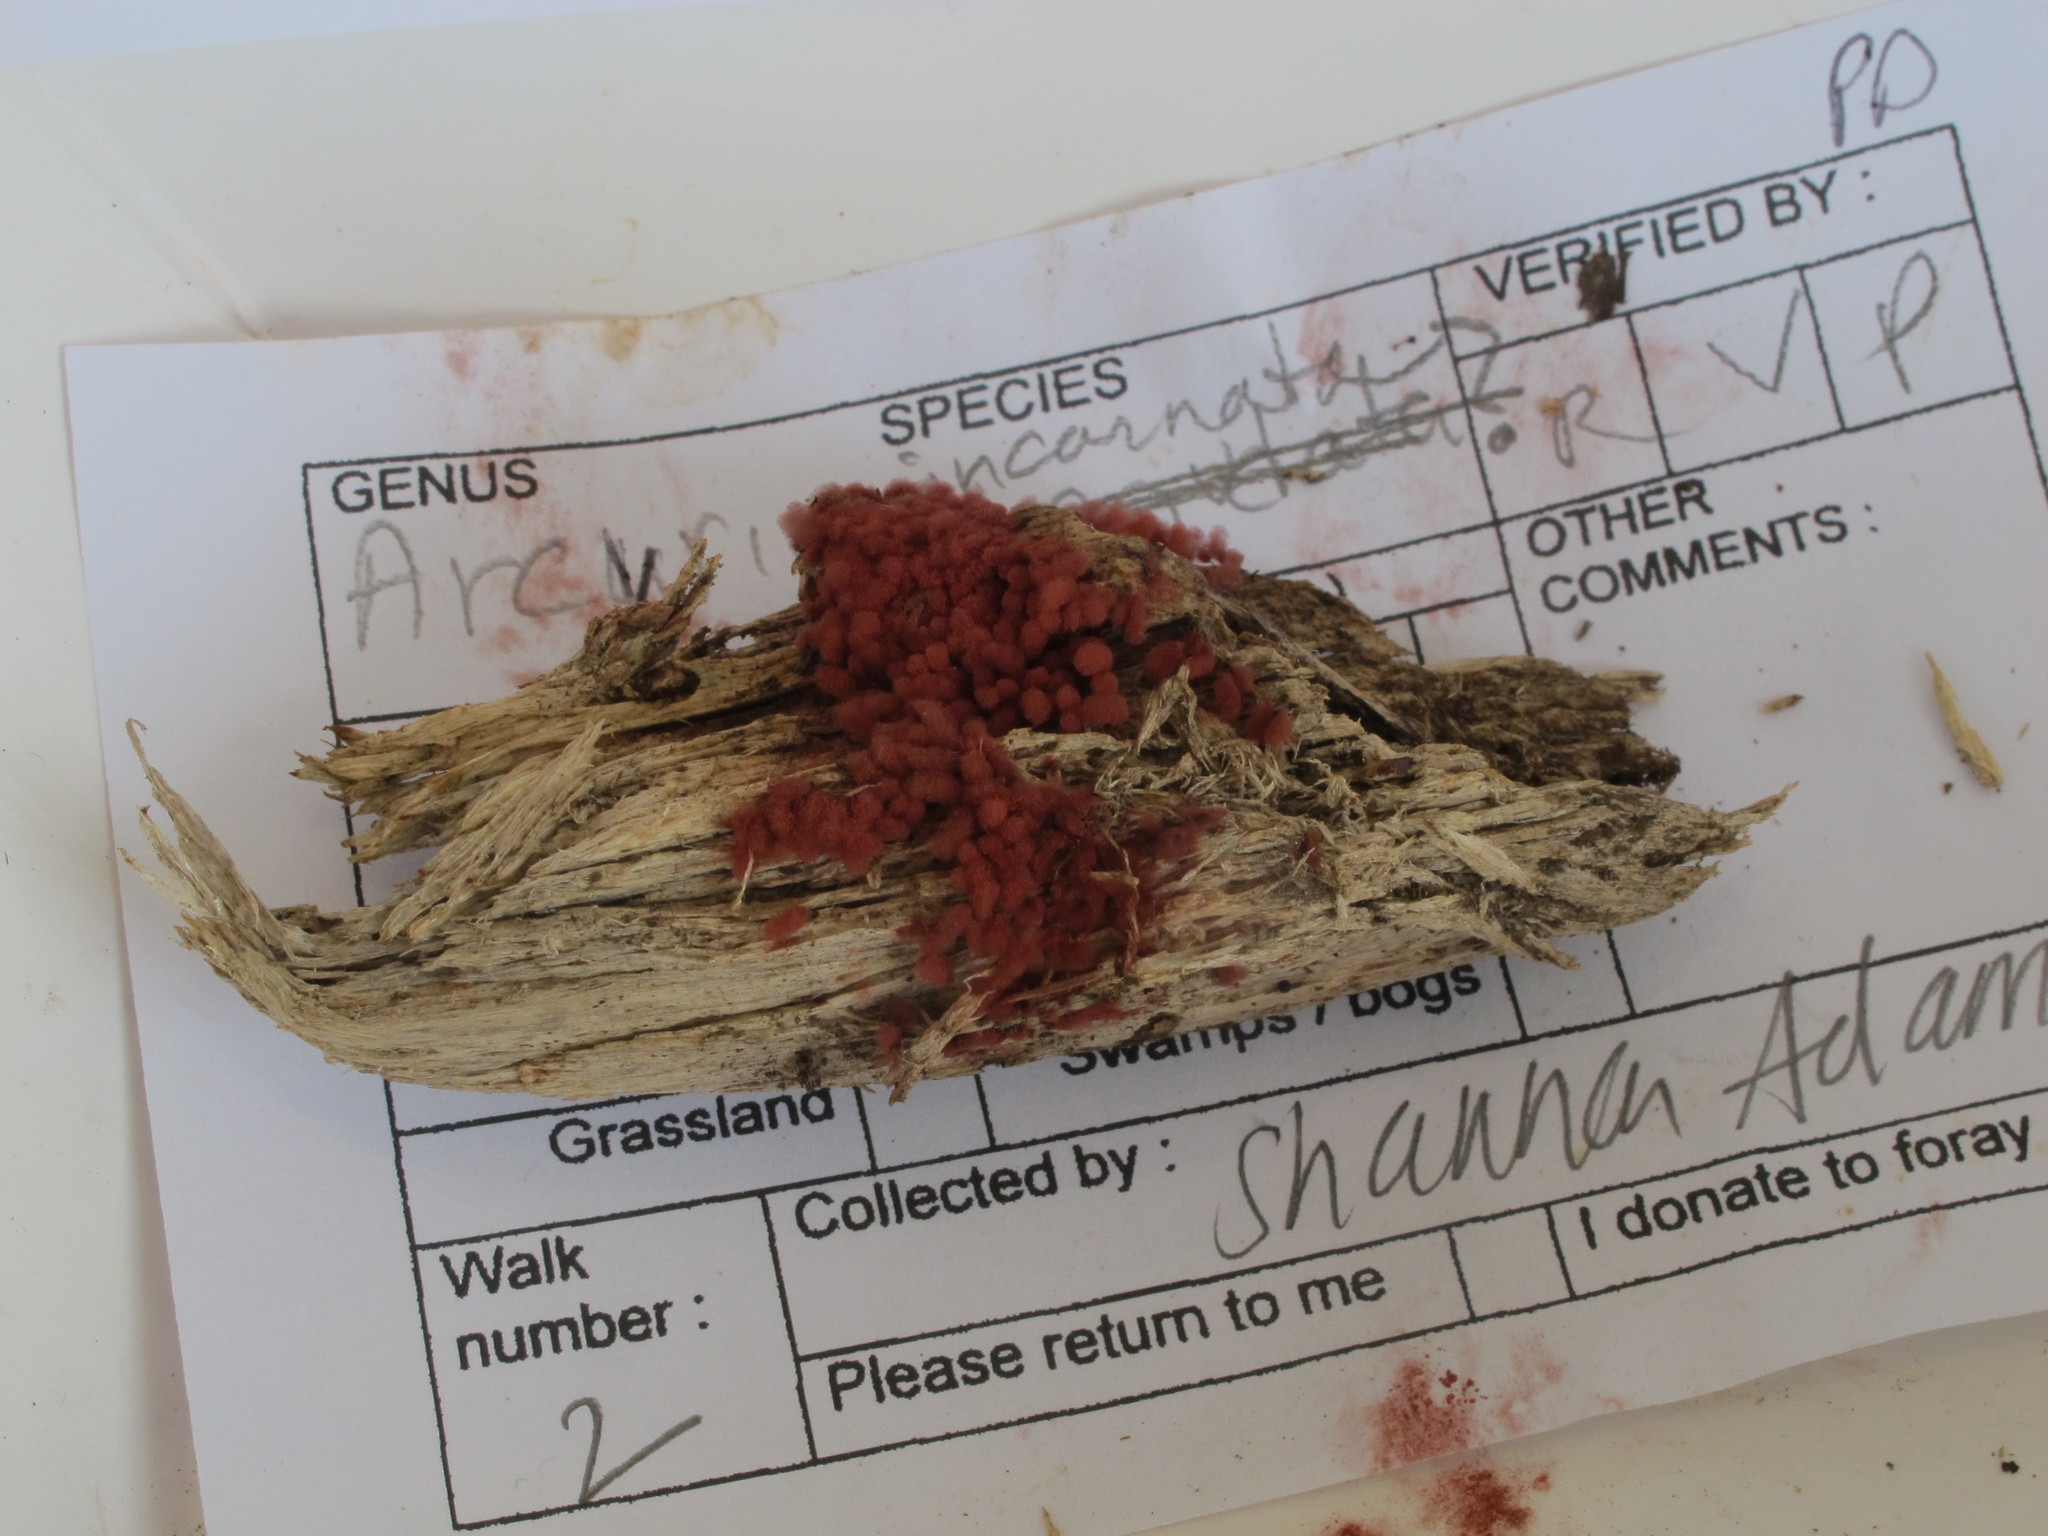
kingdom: Protozoa
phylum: Mycetozoa
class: Myxomycetes
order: Trichiales
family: Arcyriaceae
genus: Arcyria
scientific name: Arcyria incarnata
